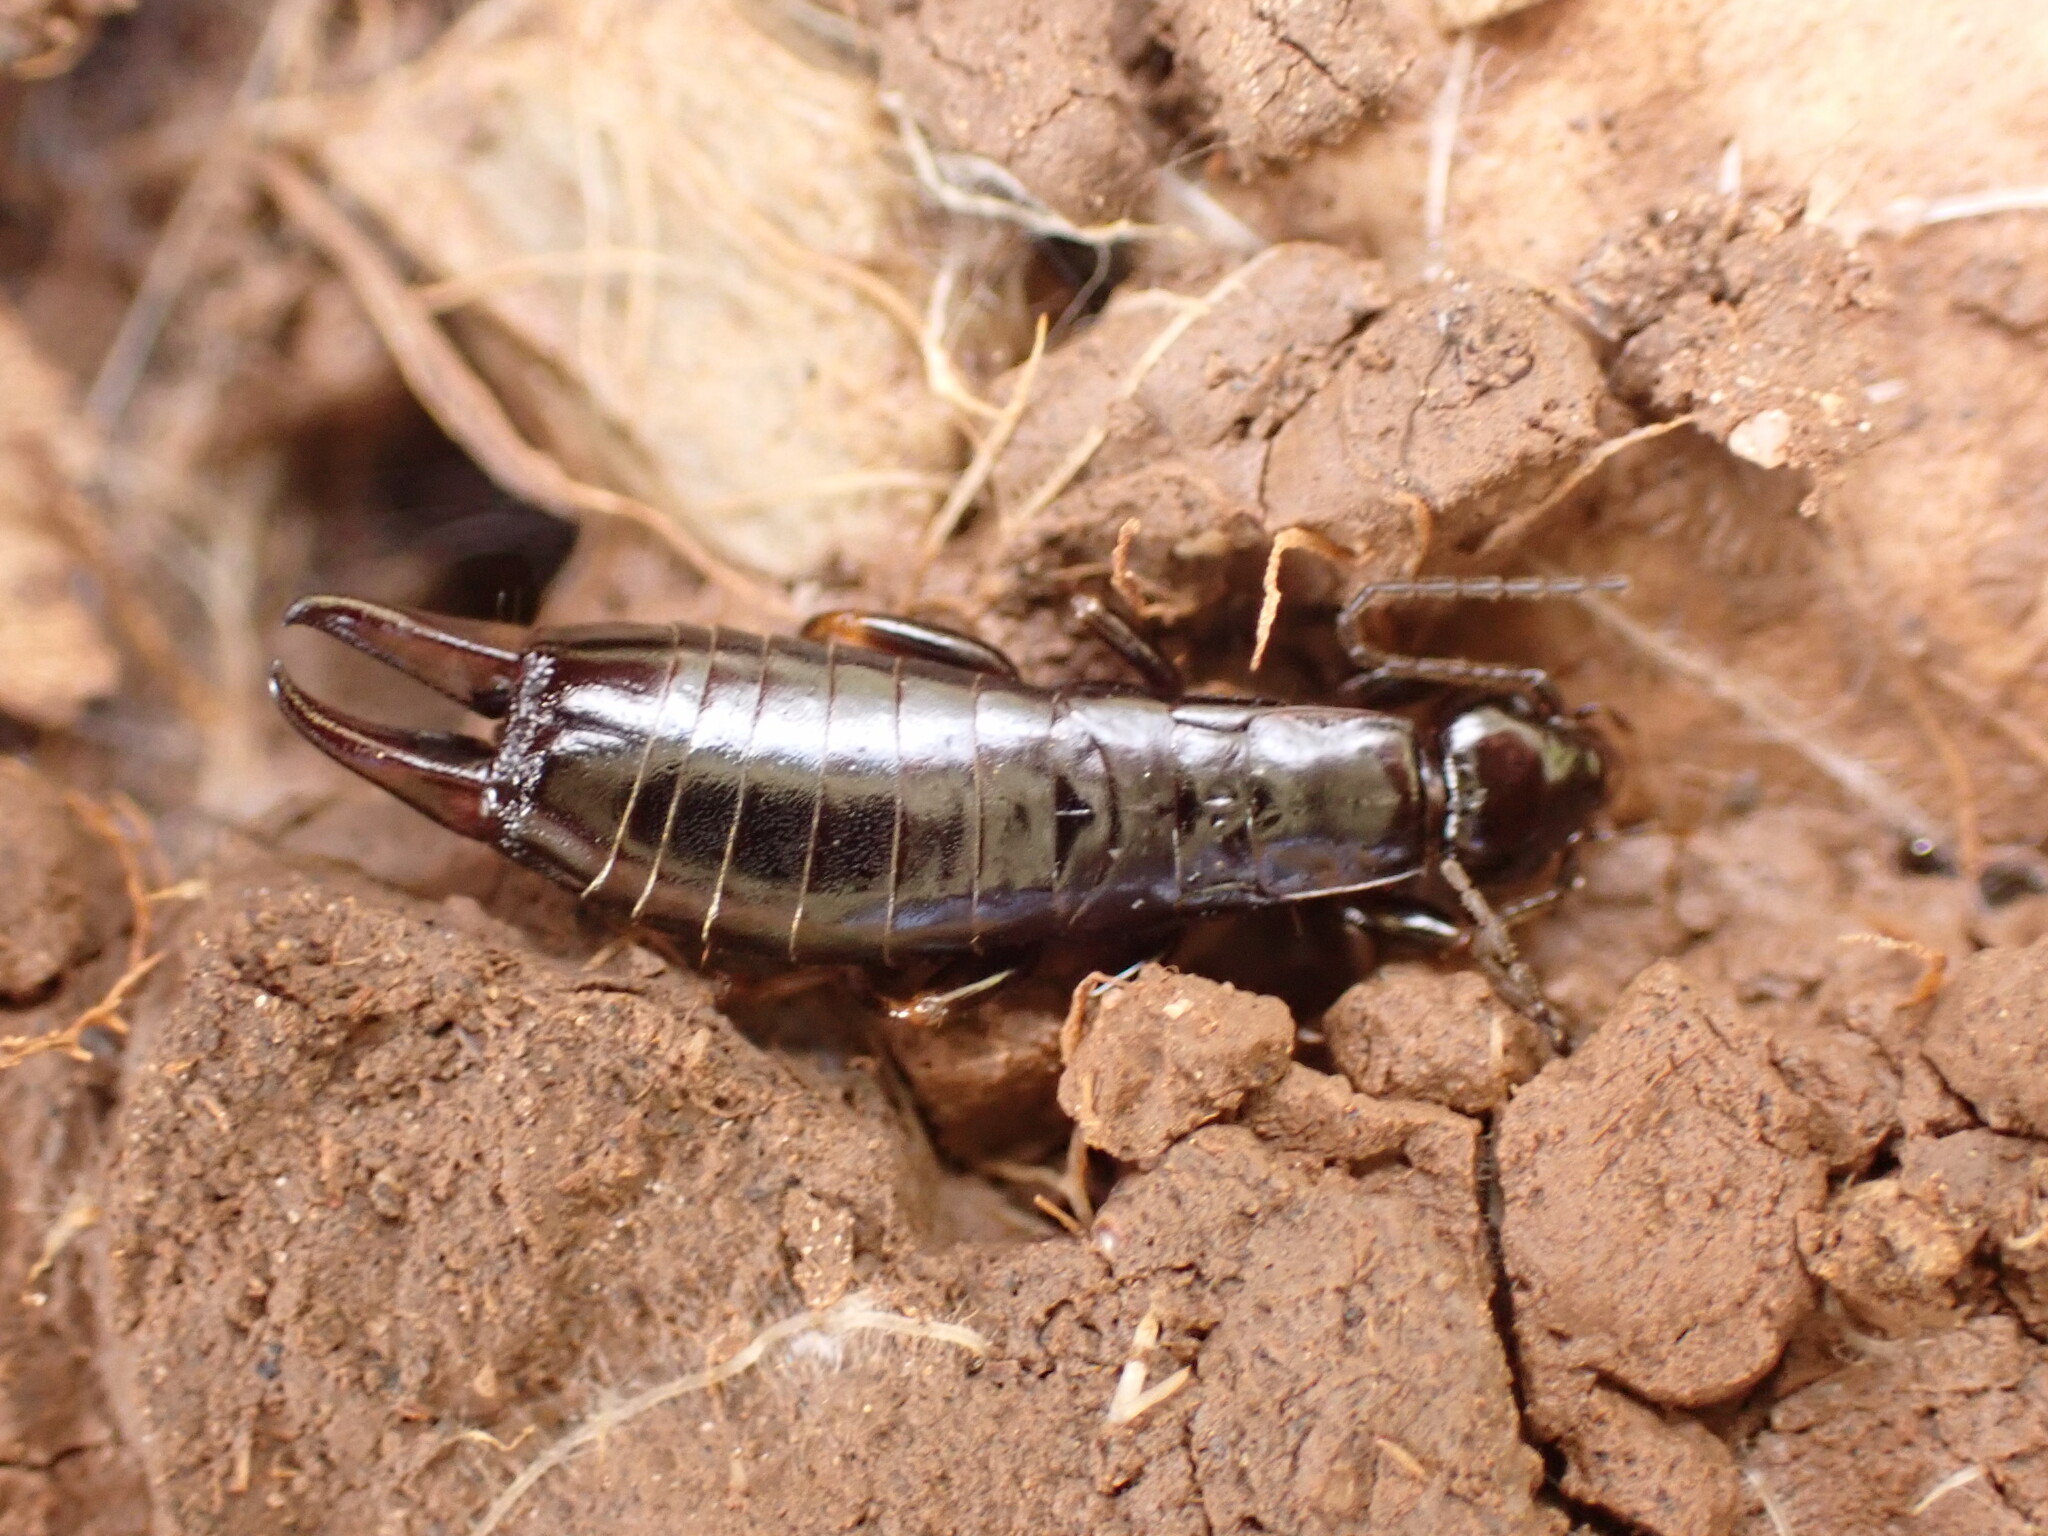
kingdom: Animalia
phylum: Arthropoda
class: Insecta
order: Dermaptera
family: Anisolabididae
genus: Euborellia
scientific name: Euborellia moesta
